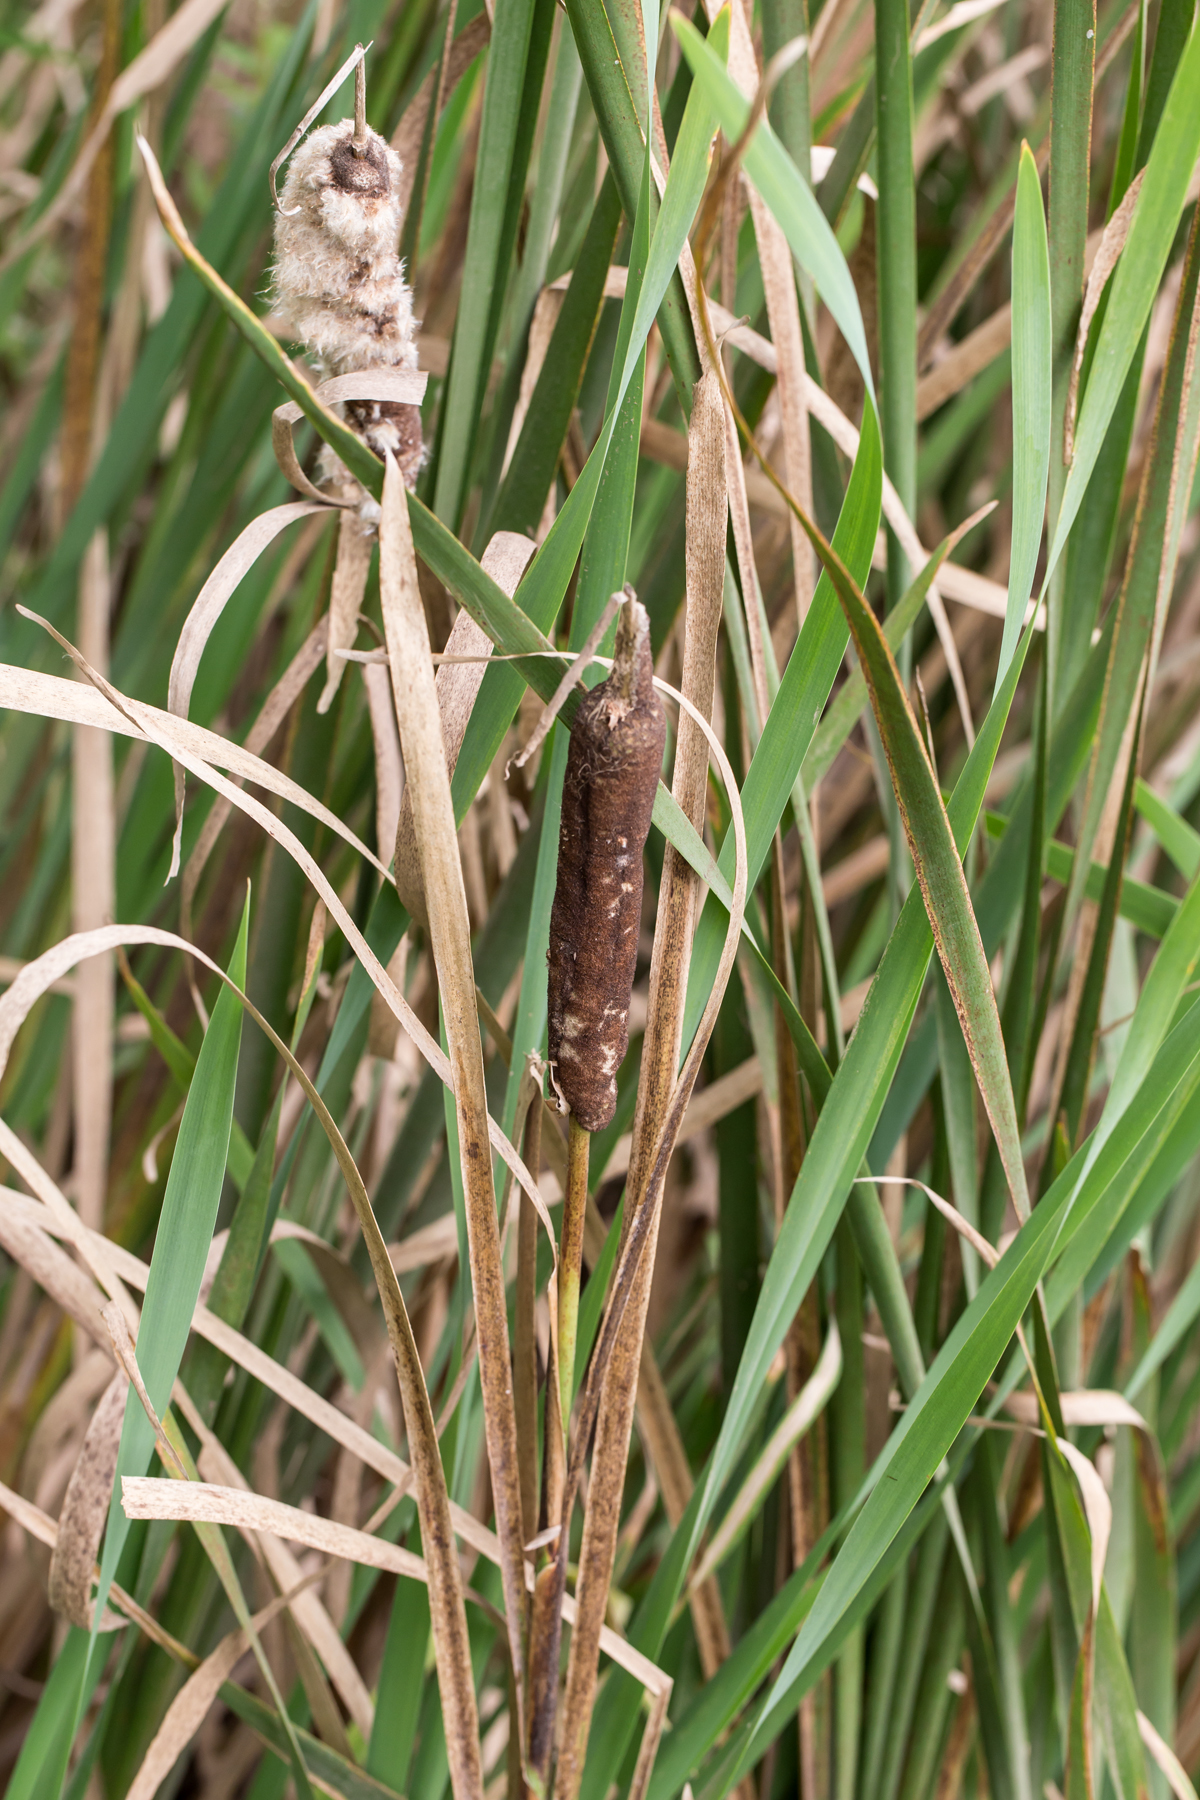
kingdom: Plantae
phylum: Tracheophyta
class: Liliopsida
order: Poales
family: Typhaceae
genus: Typha
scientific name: Typha latifolia
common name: Broadleaf cattail
